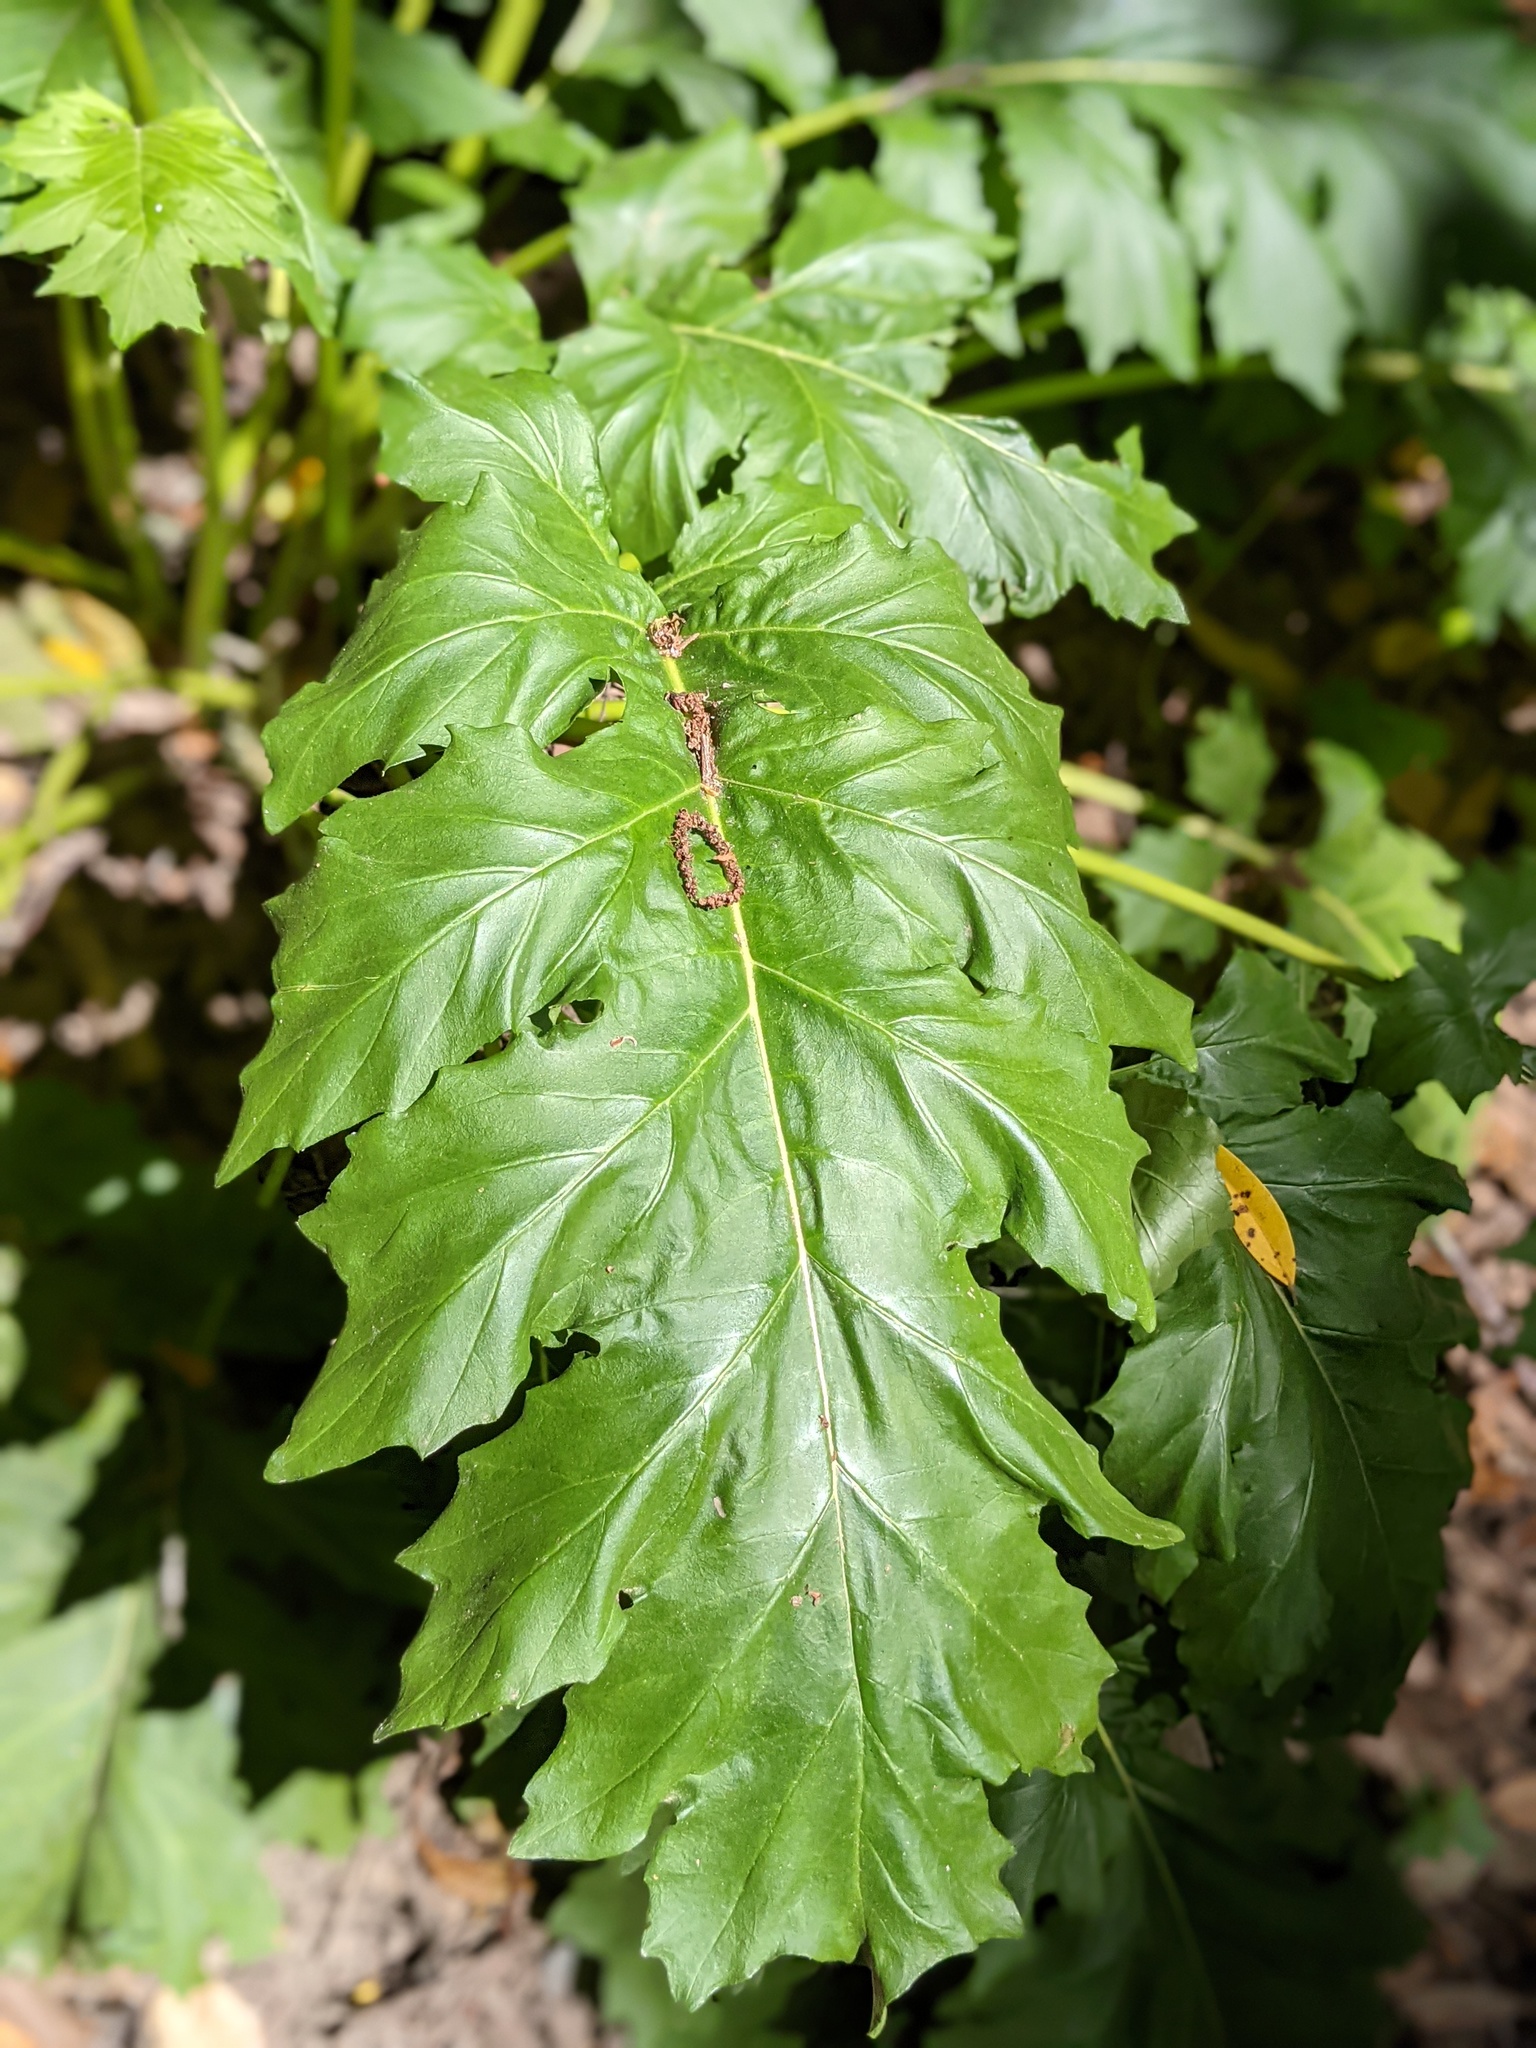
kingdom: Plantae
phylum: Tracheophyta
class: Magnoliopsida
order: Lamiales
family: Acanthaceae
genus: Acanthus
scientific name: Acanthus mollis
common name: Bear's-breech
